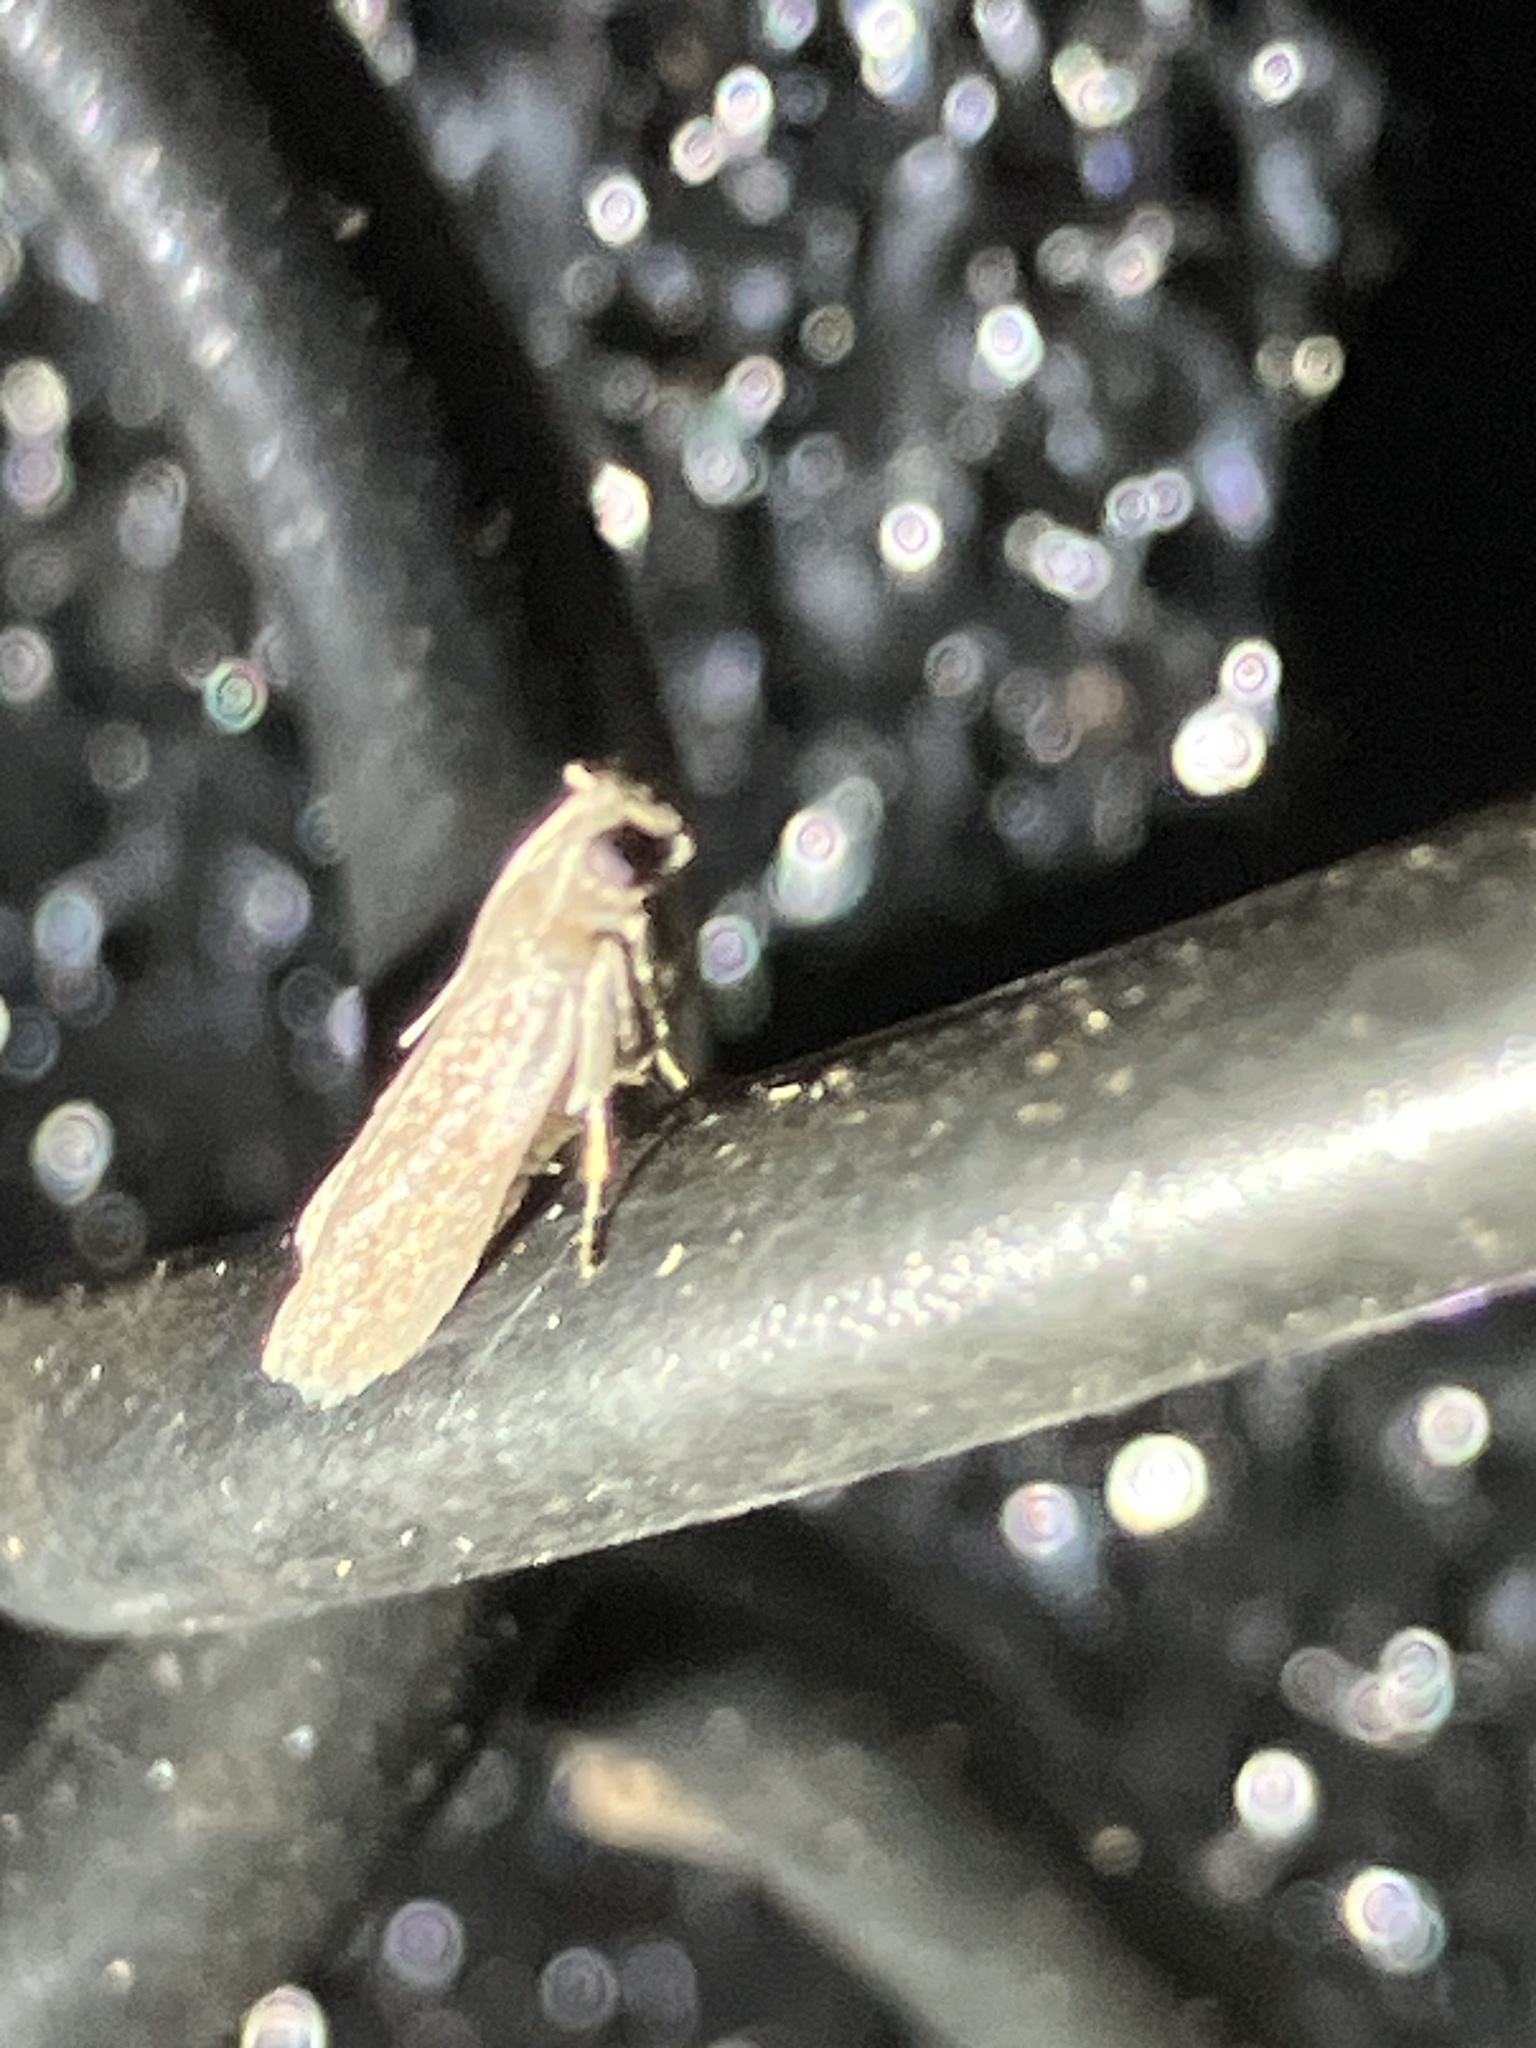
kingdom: Animalia
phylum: Arthropoda
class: Insecta
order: Lepidoptera
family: Pyralidae
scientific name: Pyralidae
